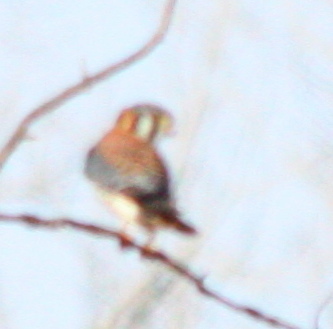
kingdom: Animalia
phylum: Chordata
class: Aves
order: Falconiformes
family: Falconidae
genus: Falco
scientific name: Falco sparverius
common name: American kestrel
